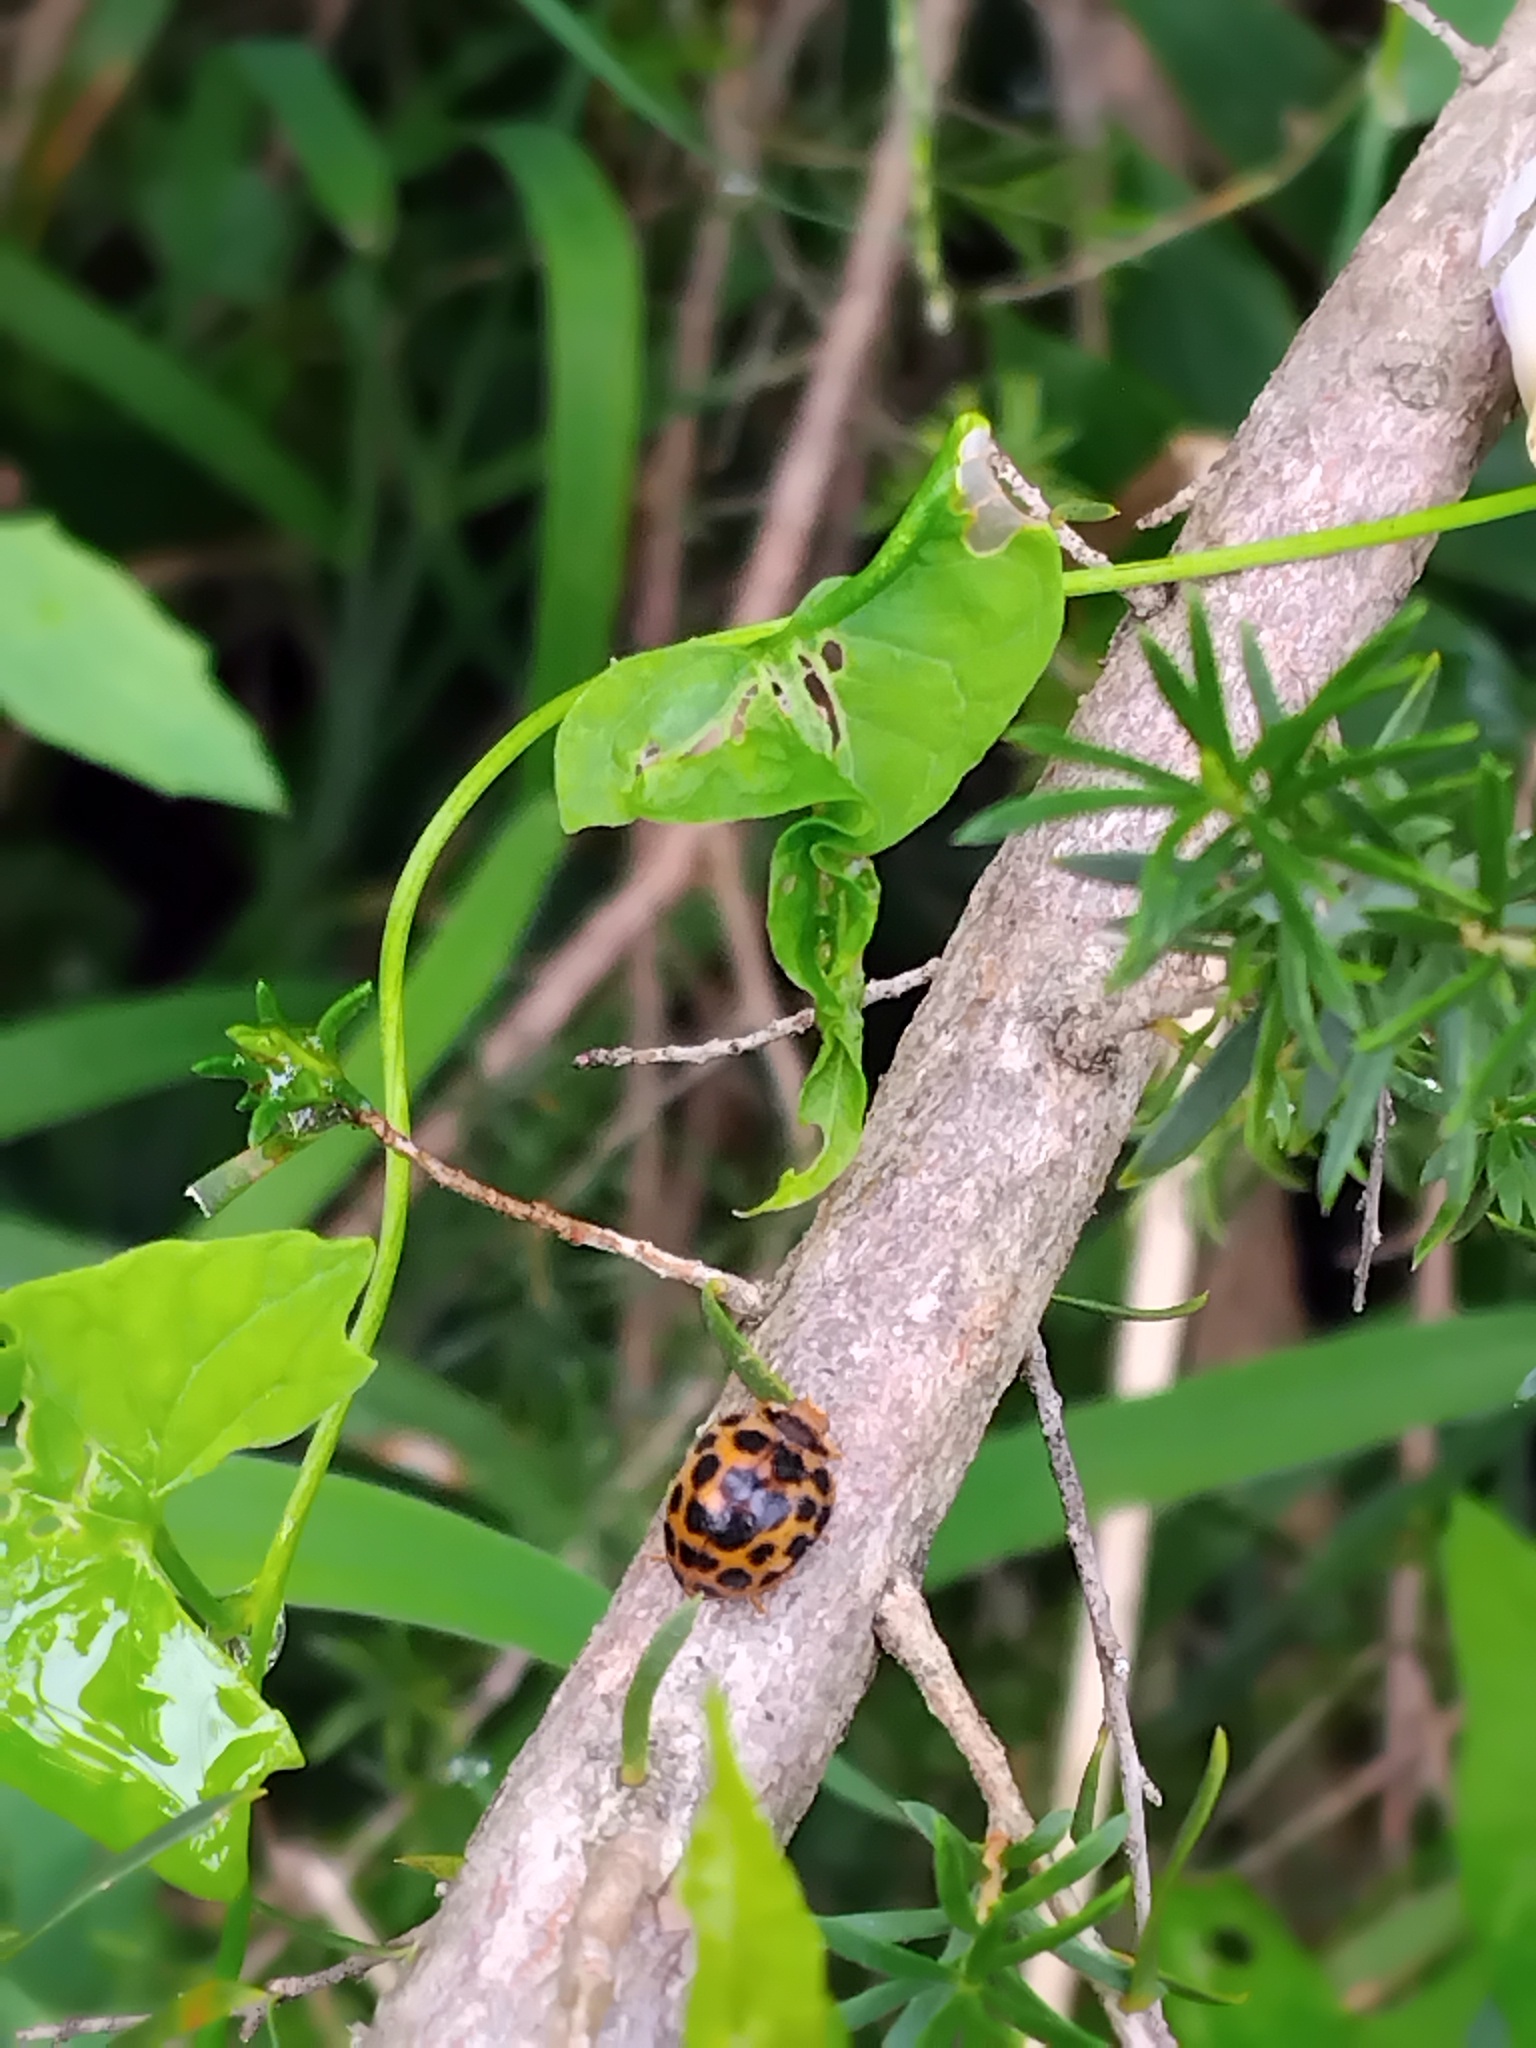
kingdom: Animalia
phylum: Arthropoda
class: Insecta
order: Coleoptera
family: Coccinellidae
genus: Henosepilachna
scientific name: Henosepilachna vigintioctopunctata
